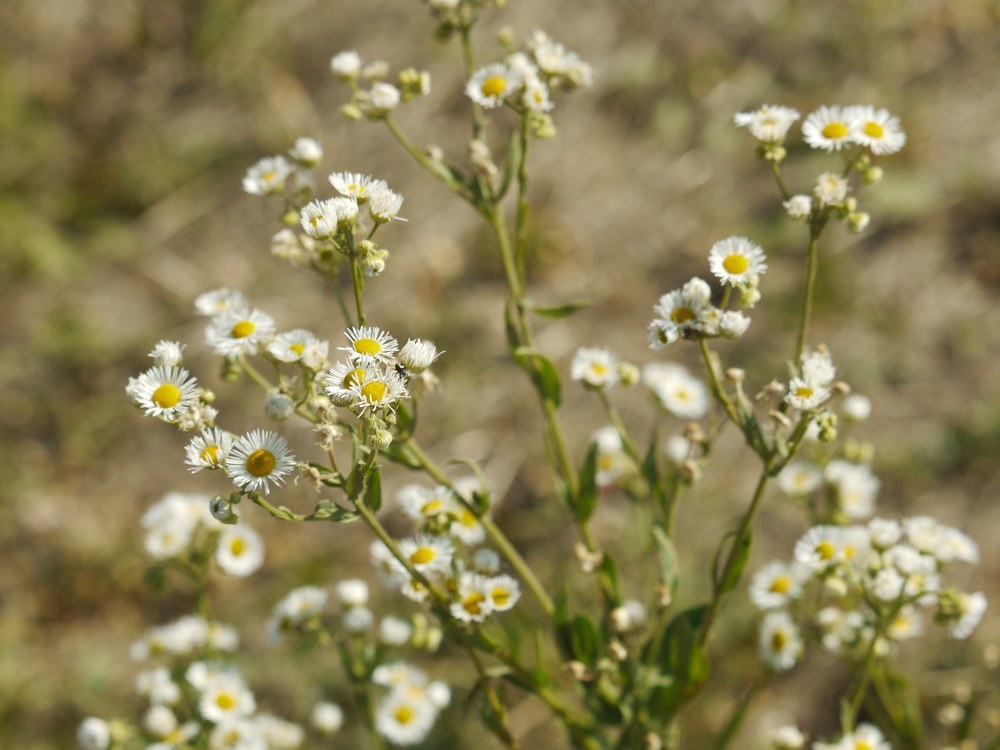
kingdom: Plantae
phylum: Tracheophyta
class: Magnoliopsida
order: Asterales
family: Asteraceae
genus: Erigeron
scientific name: Erigeron annuus
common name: Tall fleabane
